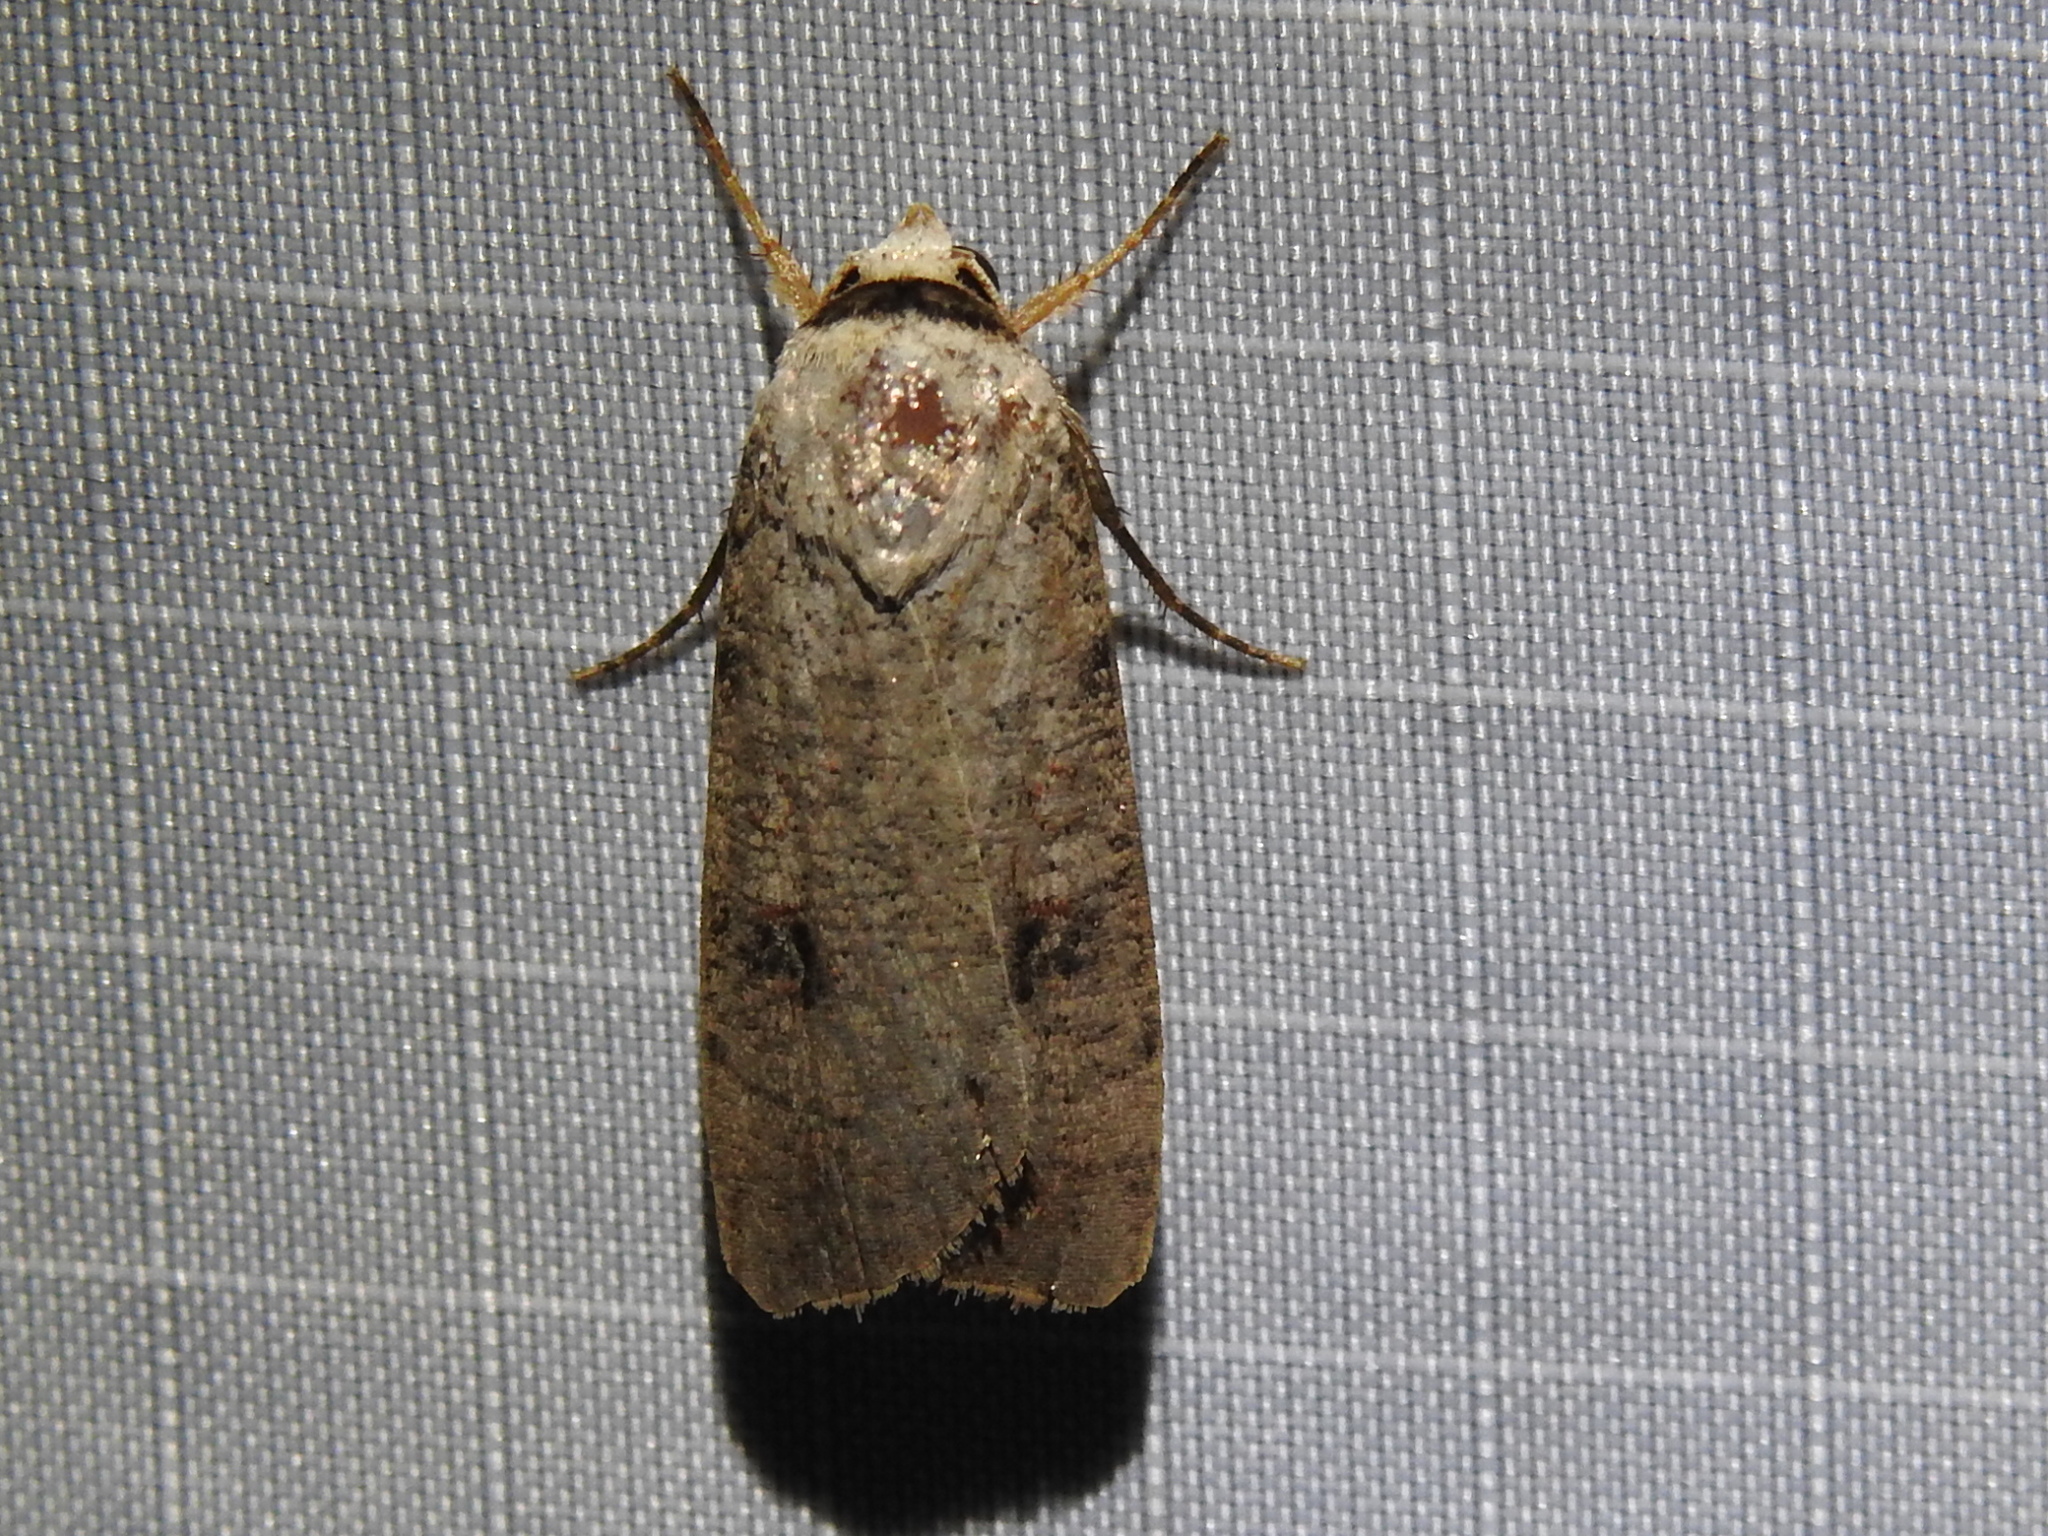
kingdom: Animalia
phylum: Arthropoda
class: Insecta
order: Lepidoptera
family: Noctuidae
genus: Anicla
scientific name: Anicla infecta
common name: Green cutworm
